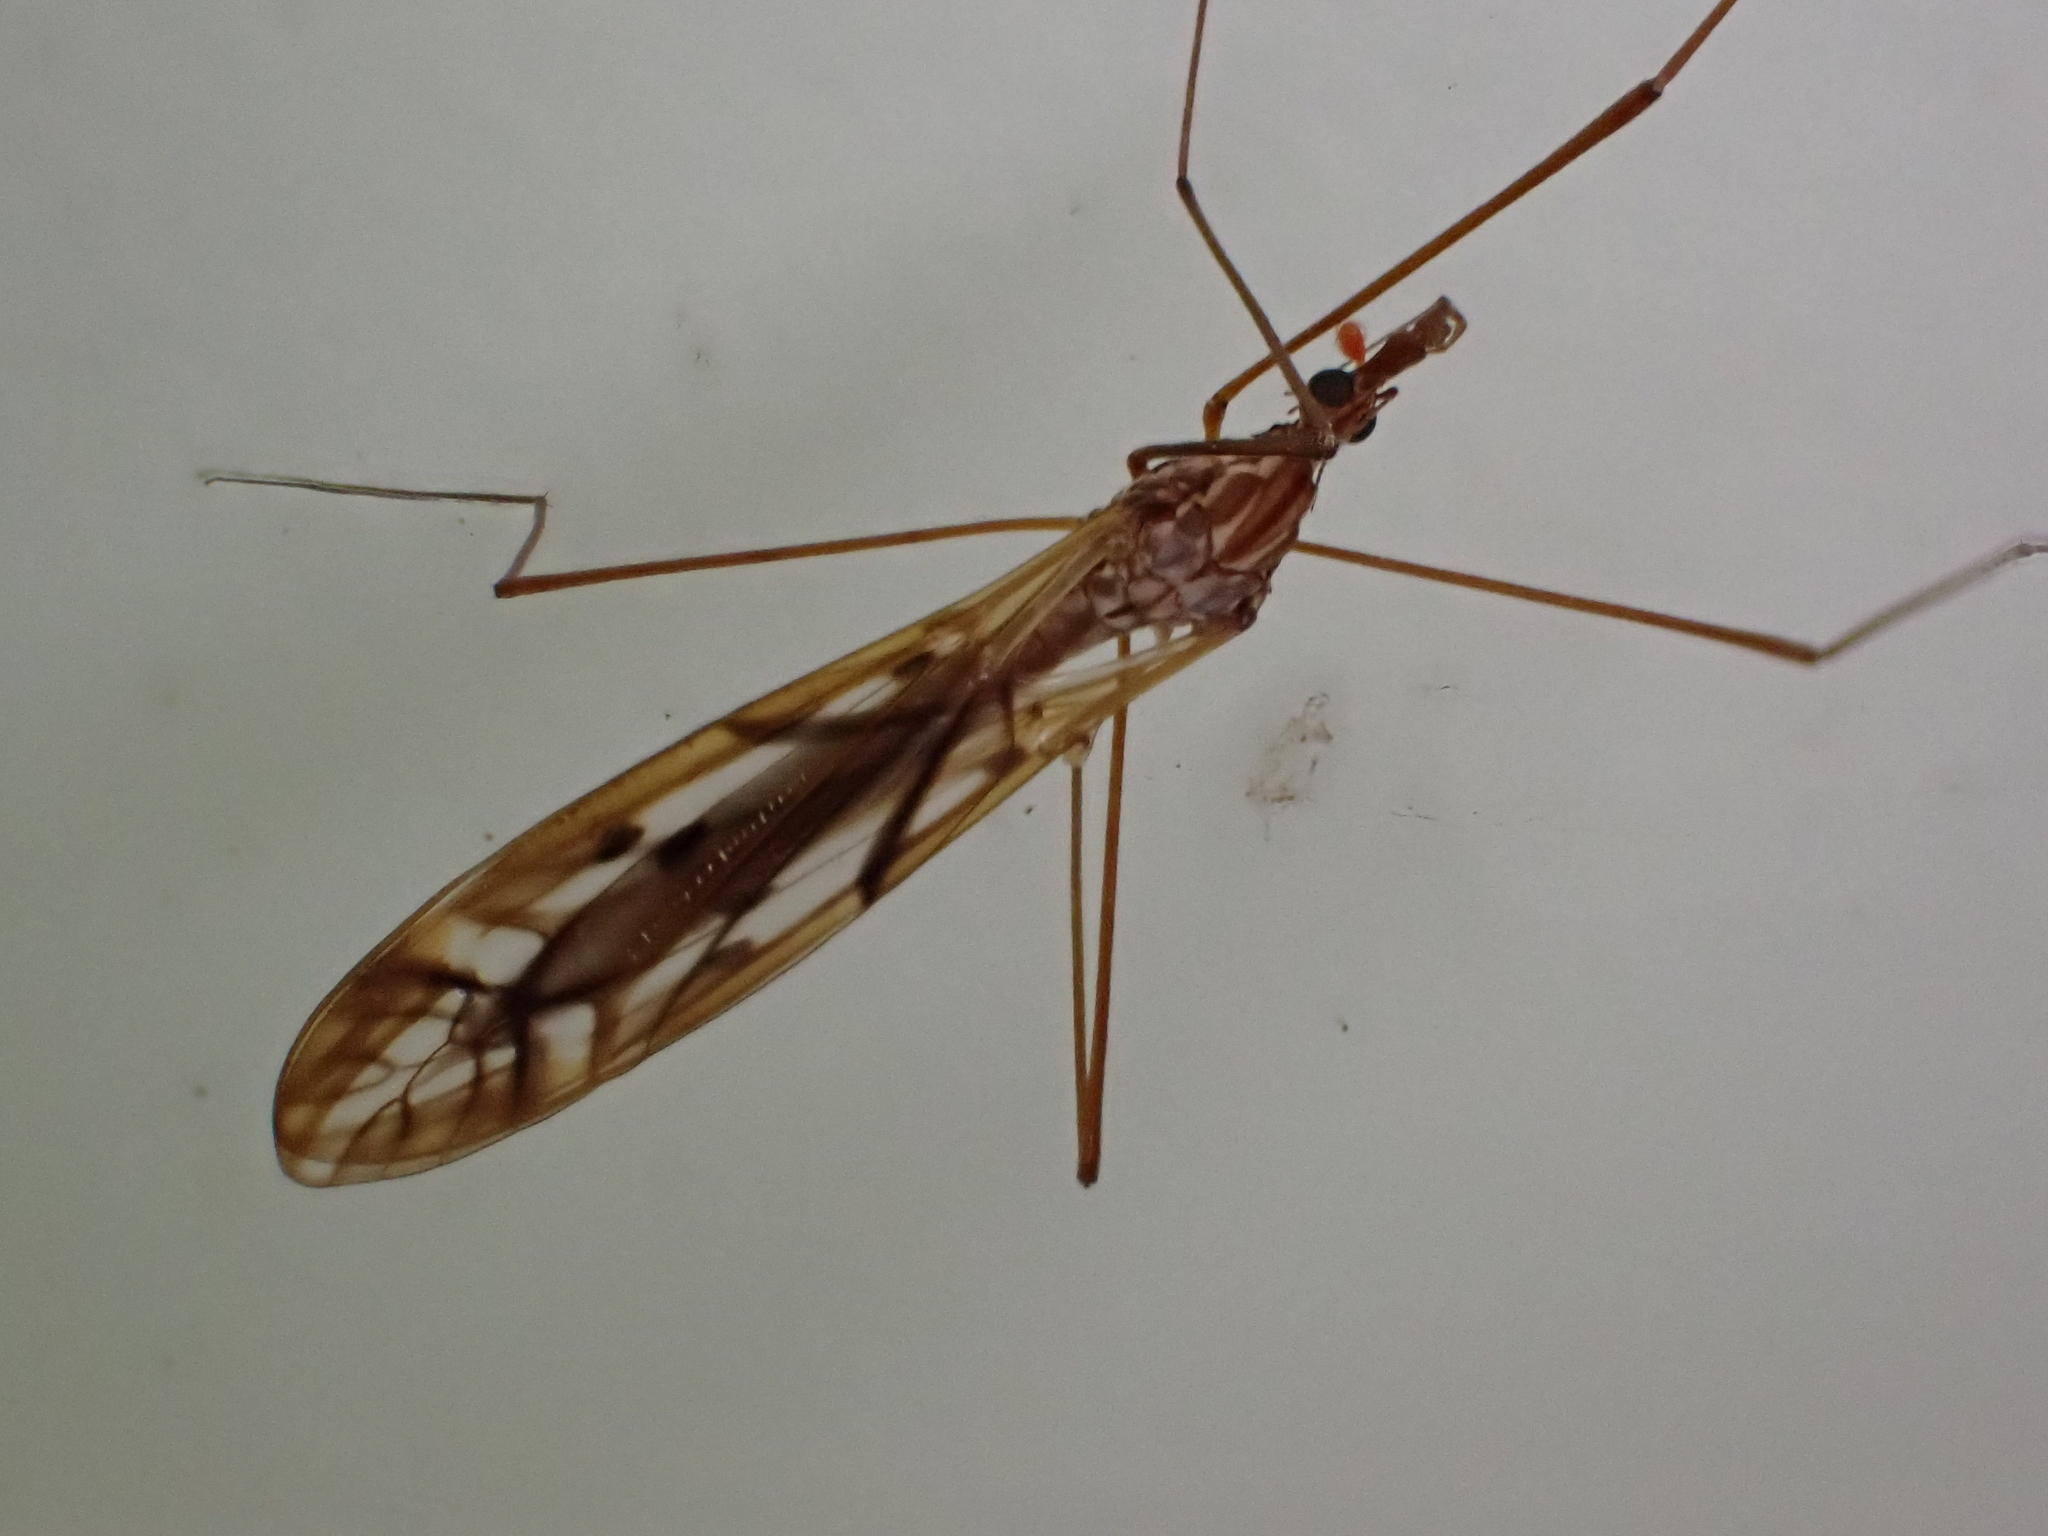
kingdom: Animalia
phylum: Arthropoda
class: Insecta
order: Diptera
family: Tipulidae
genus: Zelandotipula
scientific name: Zelandotipula novarae
